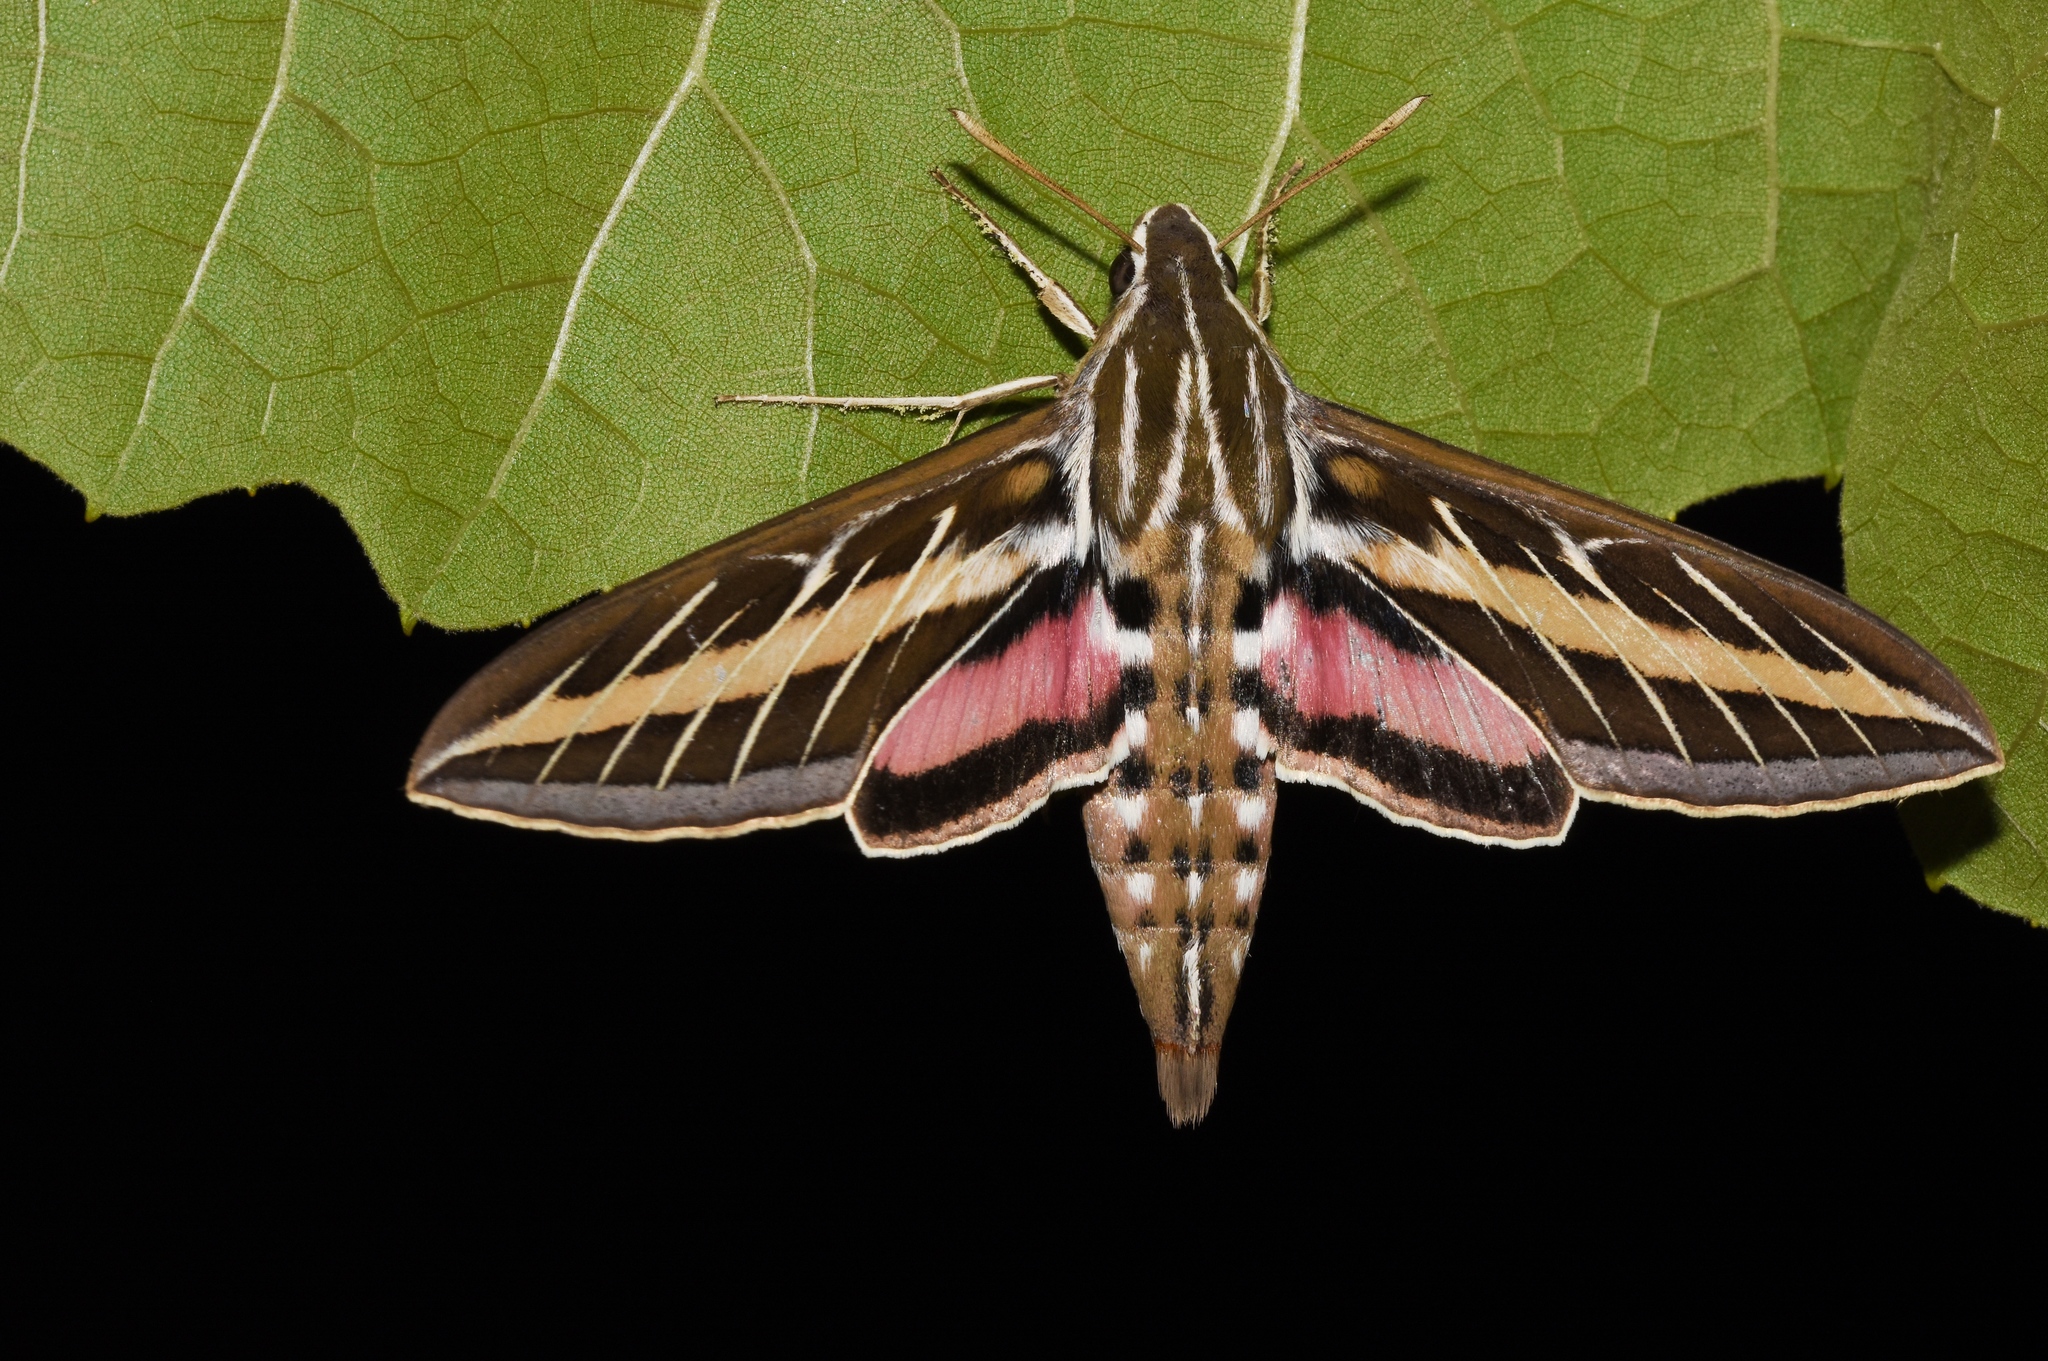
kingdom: Animalia
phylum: Arthropoda
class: Insecta
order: Lepidoptera
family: Sphingidae
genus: Hyles
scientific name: Hyles lineata
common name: White-lined sphinx
